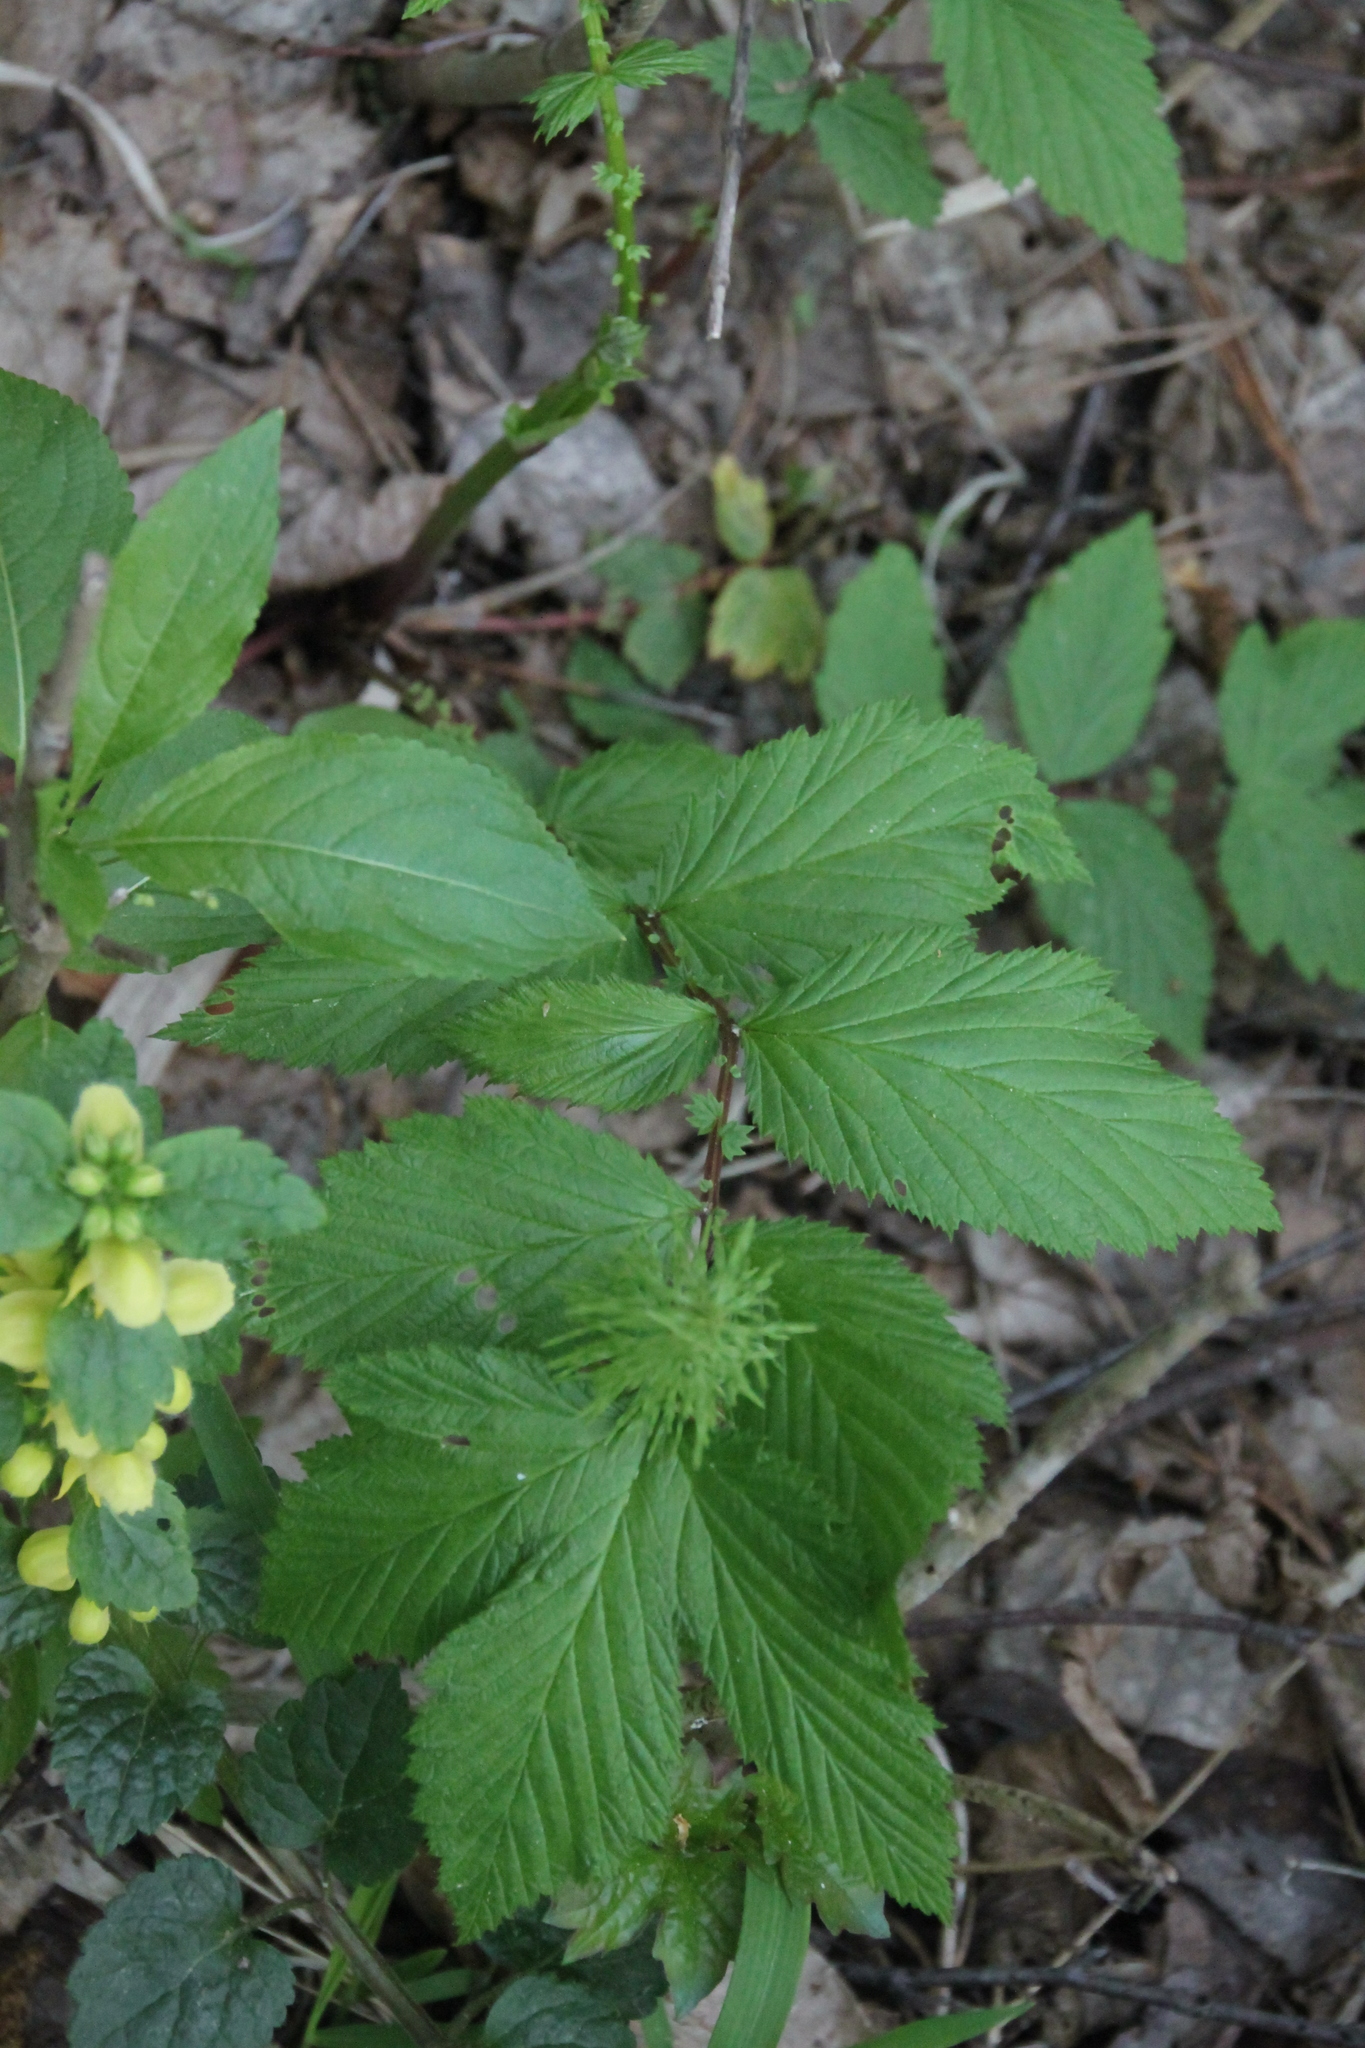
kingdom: Plantae
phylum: Tracheophyta
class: Magnoliopsida
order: Rosales
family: Rosaceae
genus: Filipendula
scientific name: Filipendula ulmaria
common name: Meadowsweet
